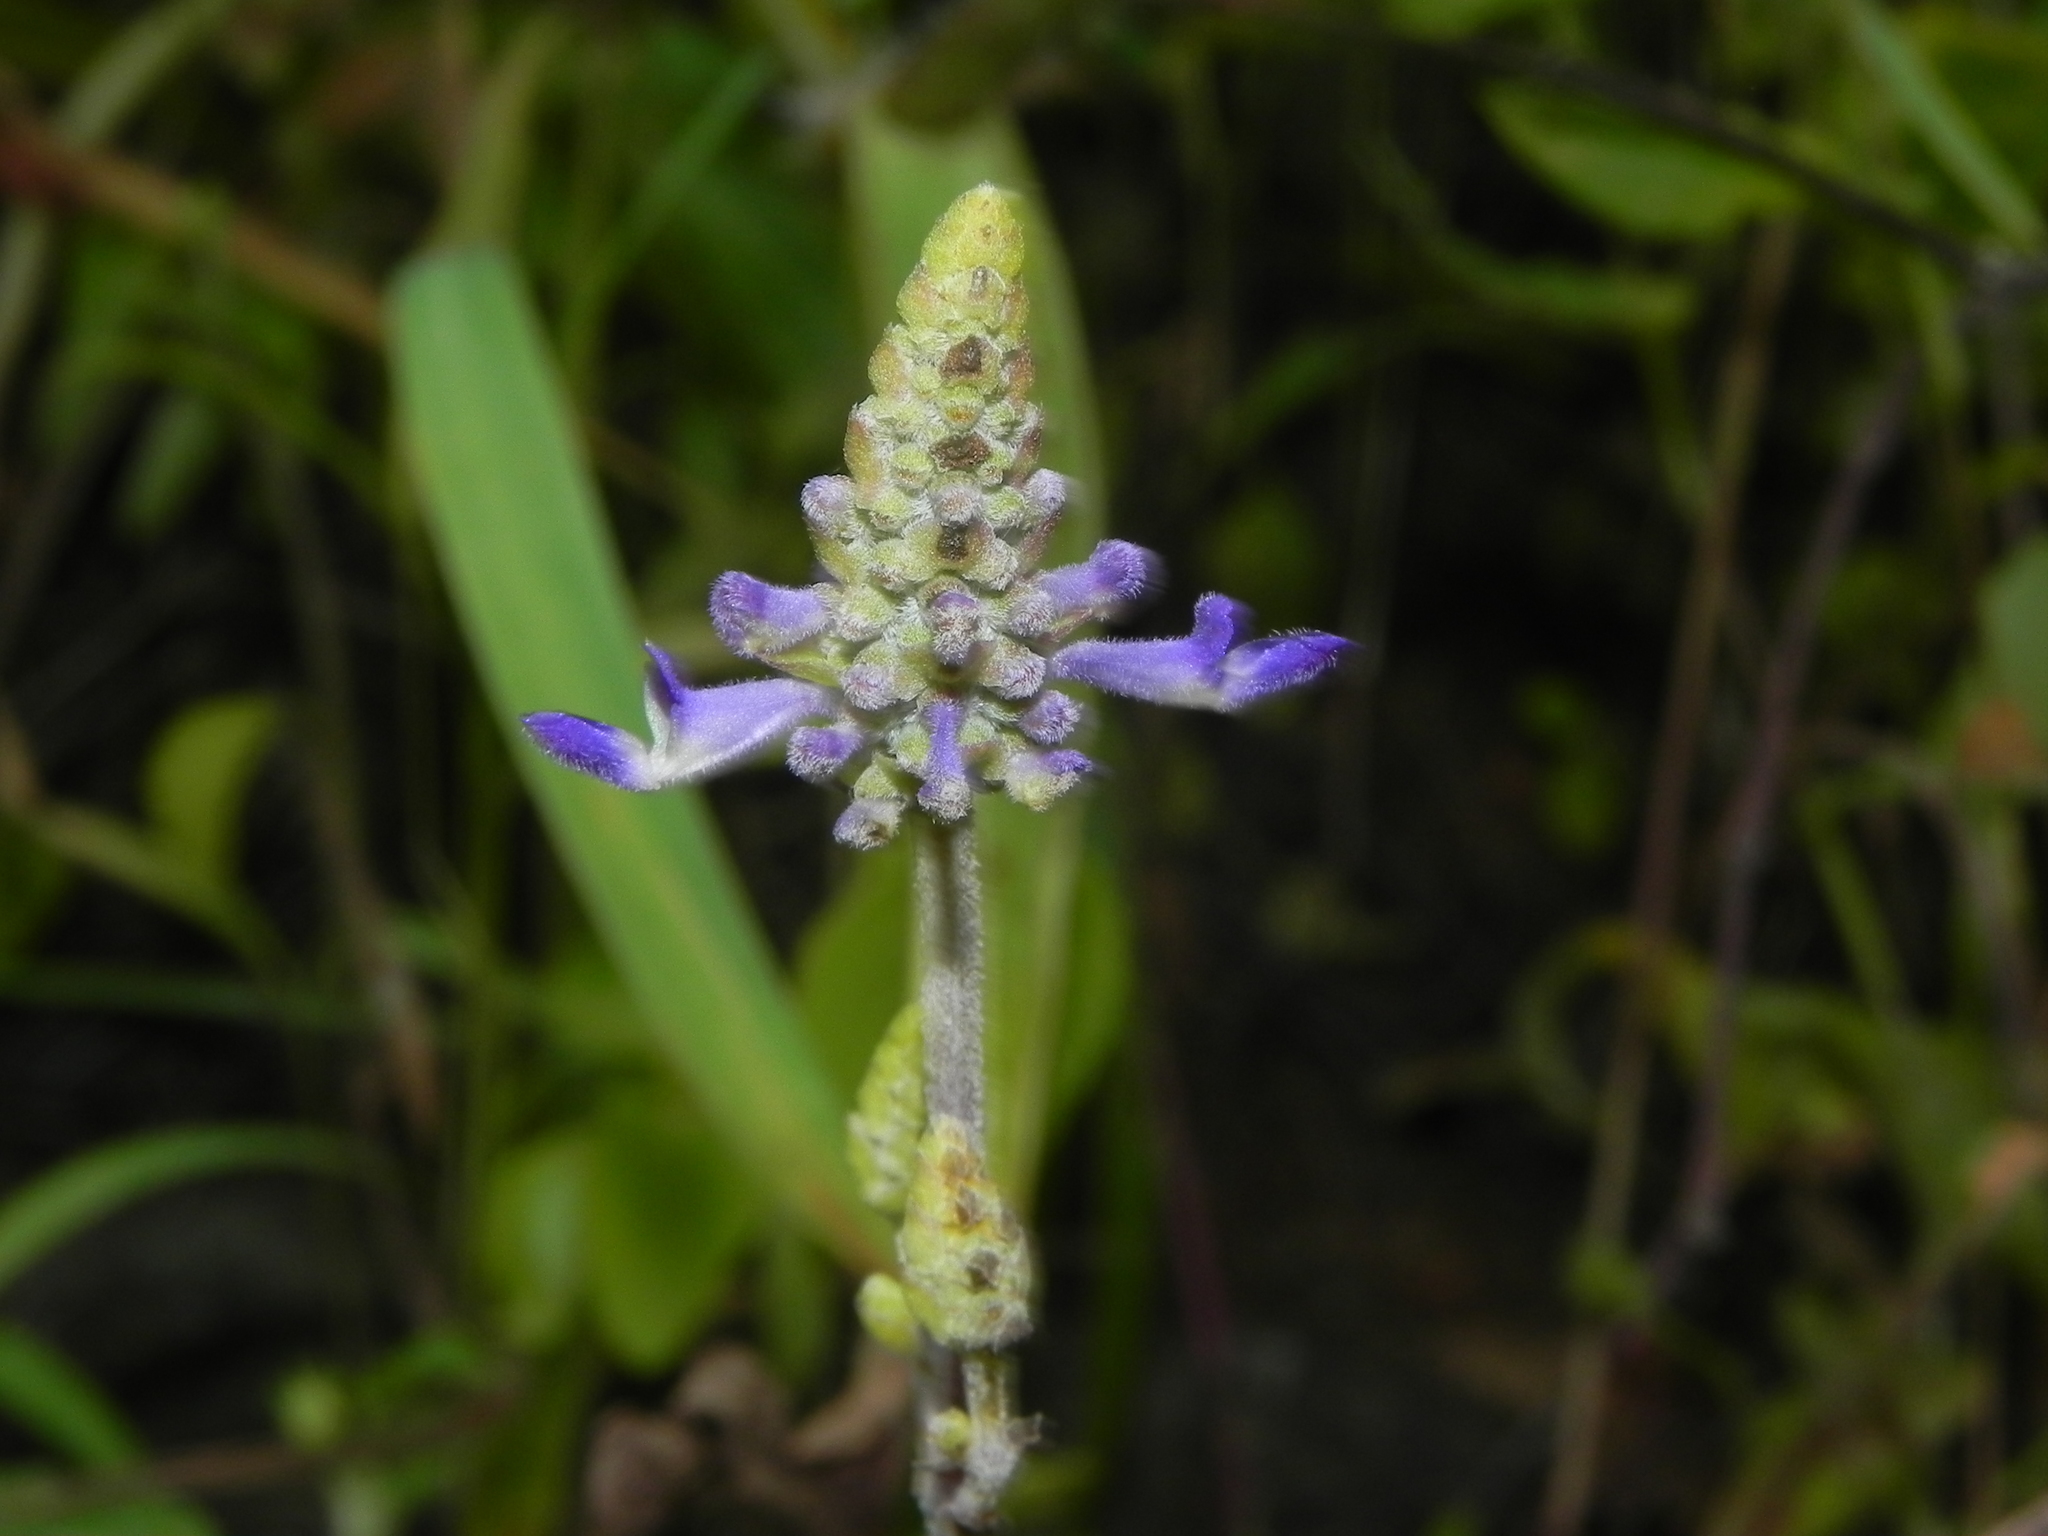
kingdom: Plantae
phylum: Tracheophyta
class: Magnoliopsida
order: Lamiales
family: Lamiaceae
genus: Coleus
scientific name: Coleus strobilifer
